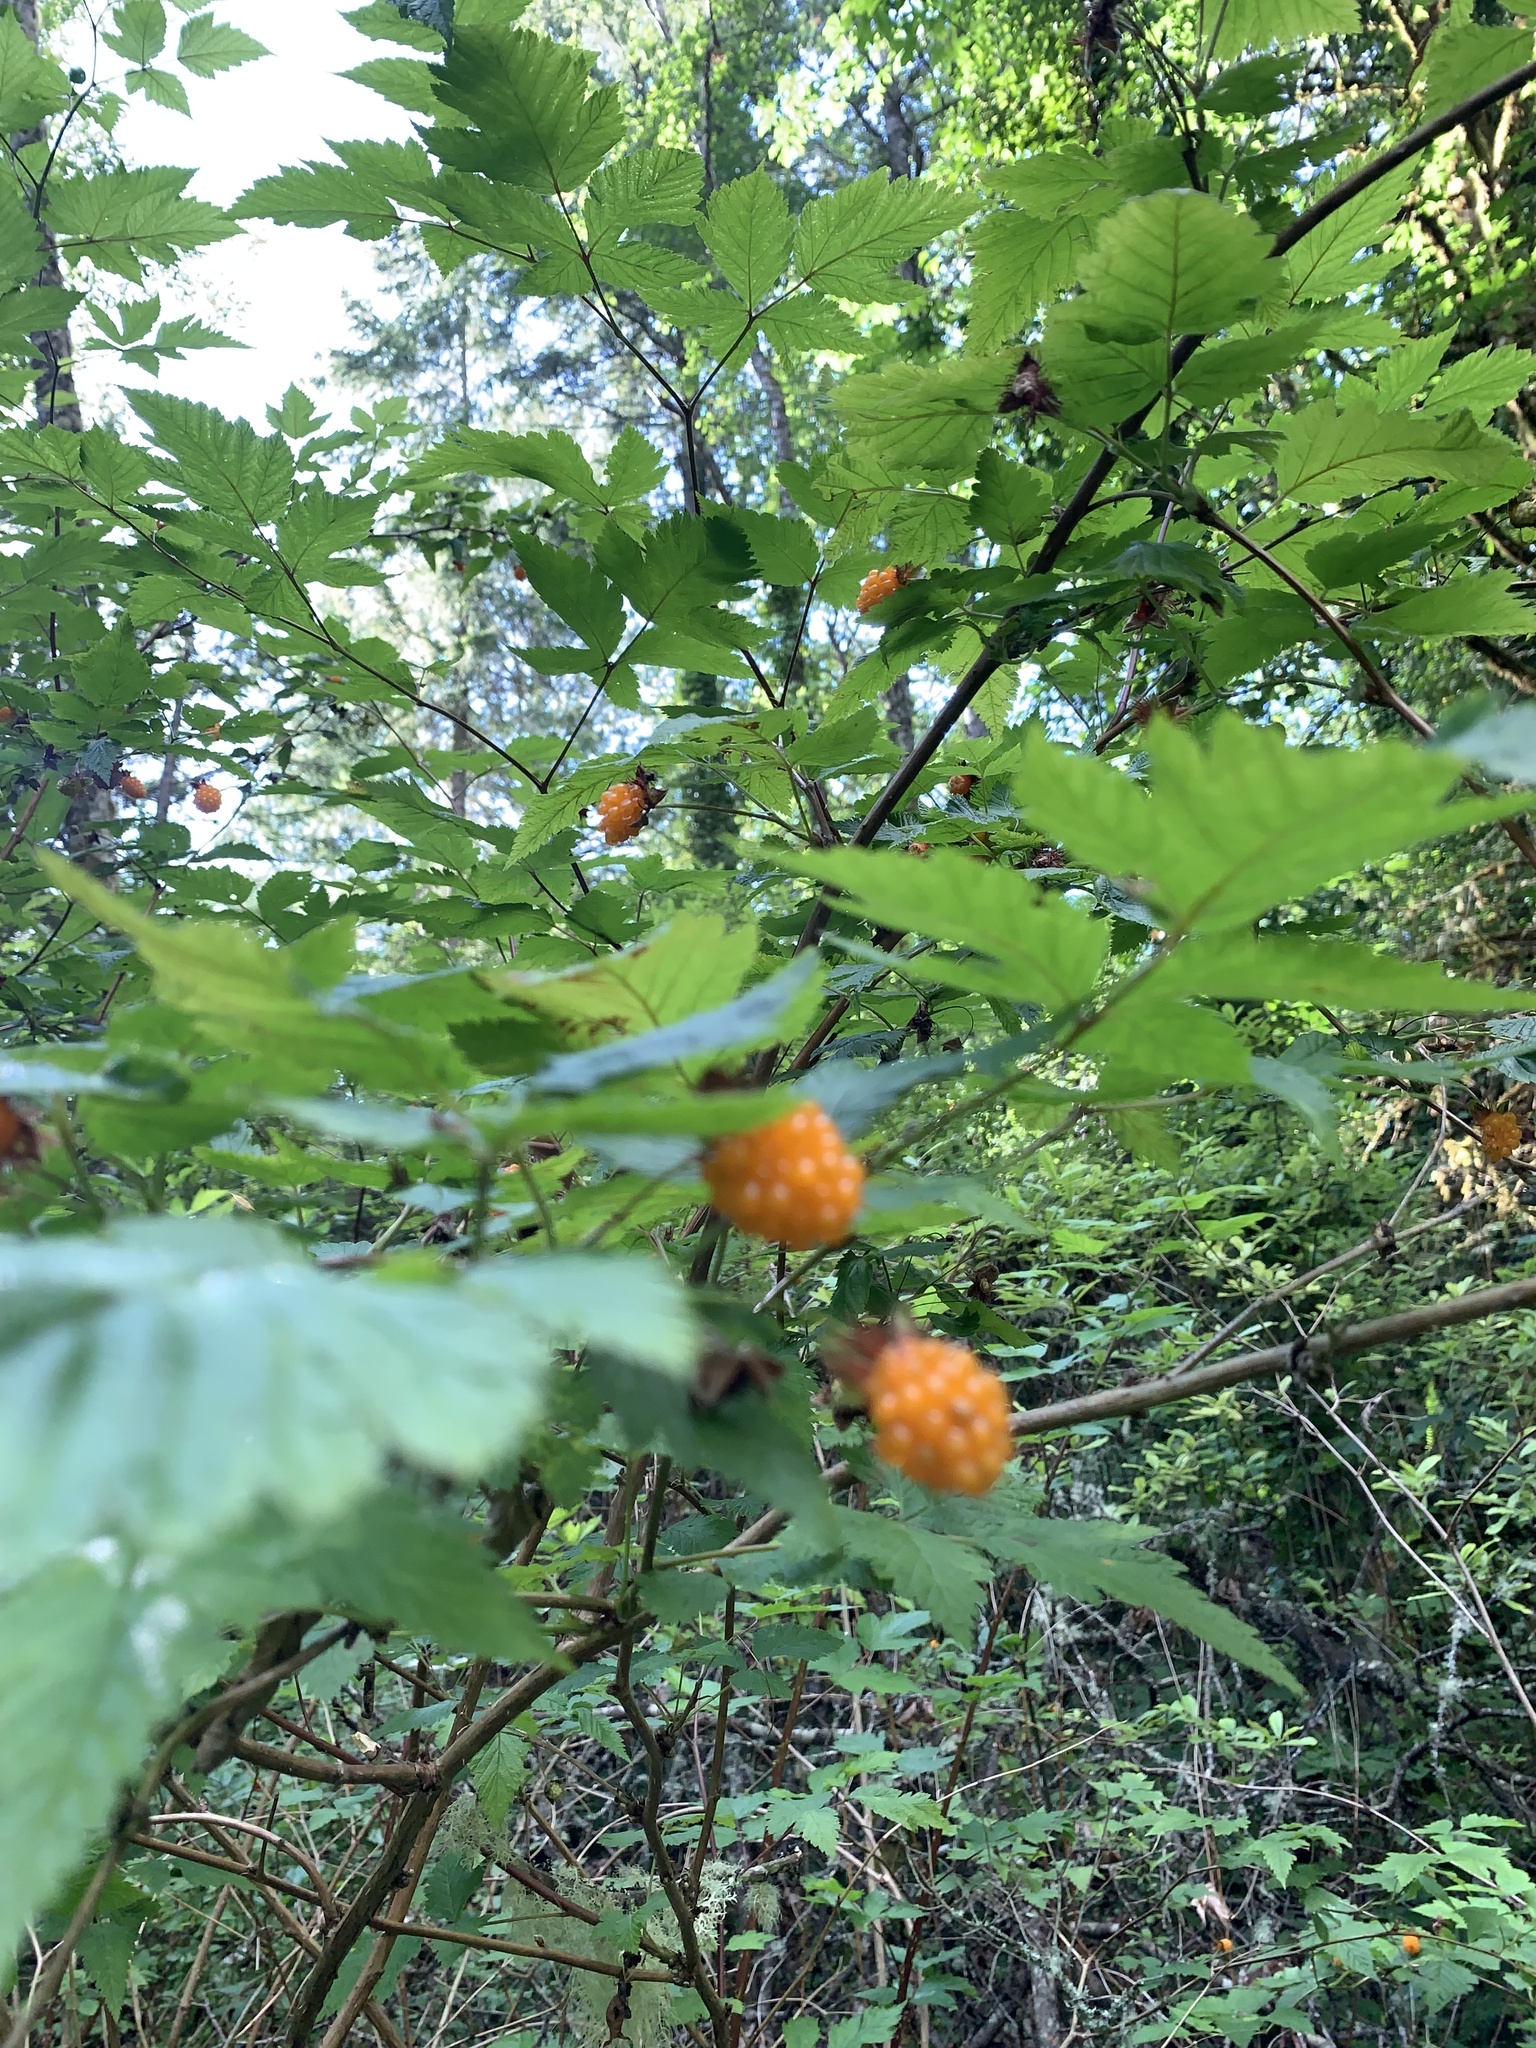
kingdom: Plantae
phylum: Tracheophyta
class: Magnoliopsida
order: Rosales
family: Rosaceae
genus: Rubus
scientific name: Rubus spectabilis
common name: Salmonberry
